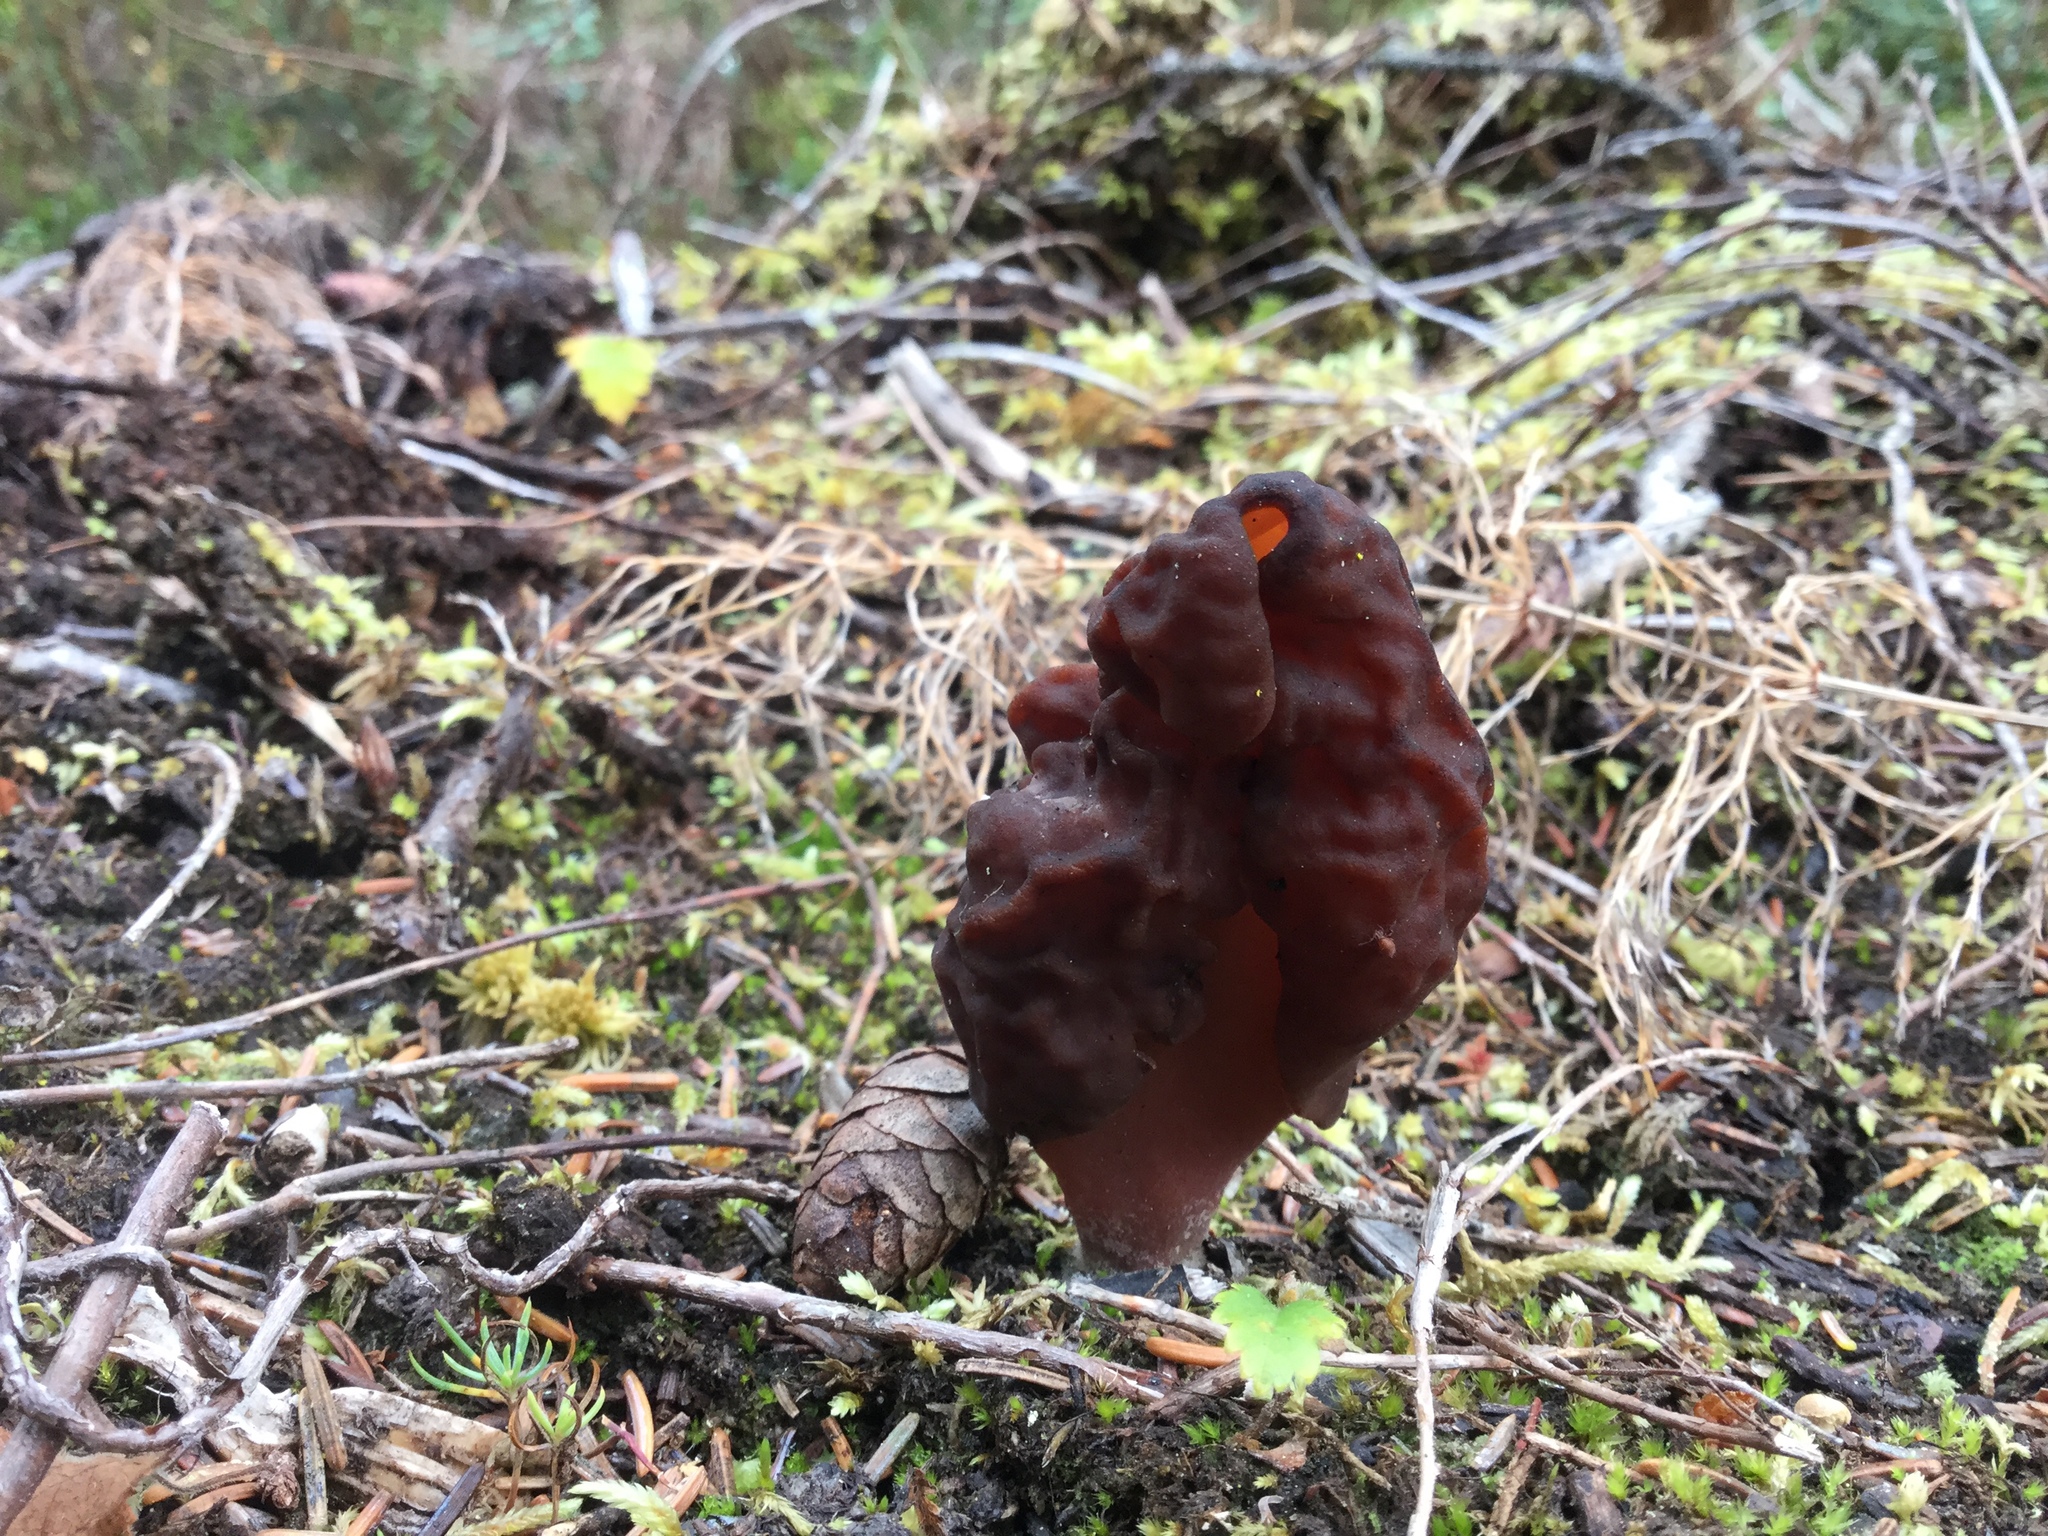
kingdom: Fungi
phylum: Ascomycota
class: Pezizomycetes
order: Pezizales
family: Discinaceae
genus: Gyromitra
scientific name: Gyromitra infula
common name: Pouched false morel
